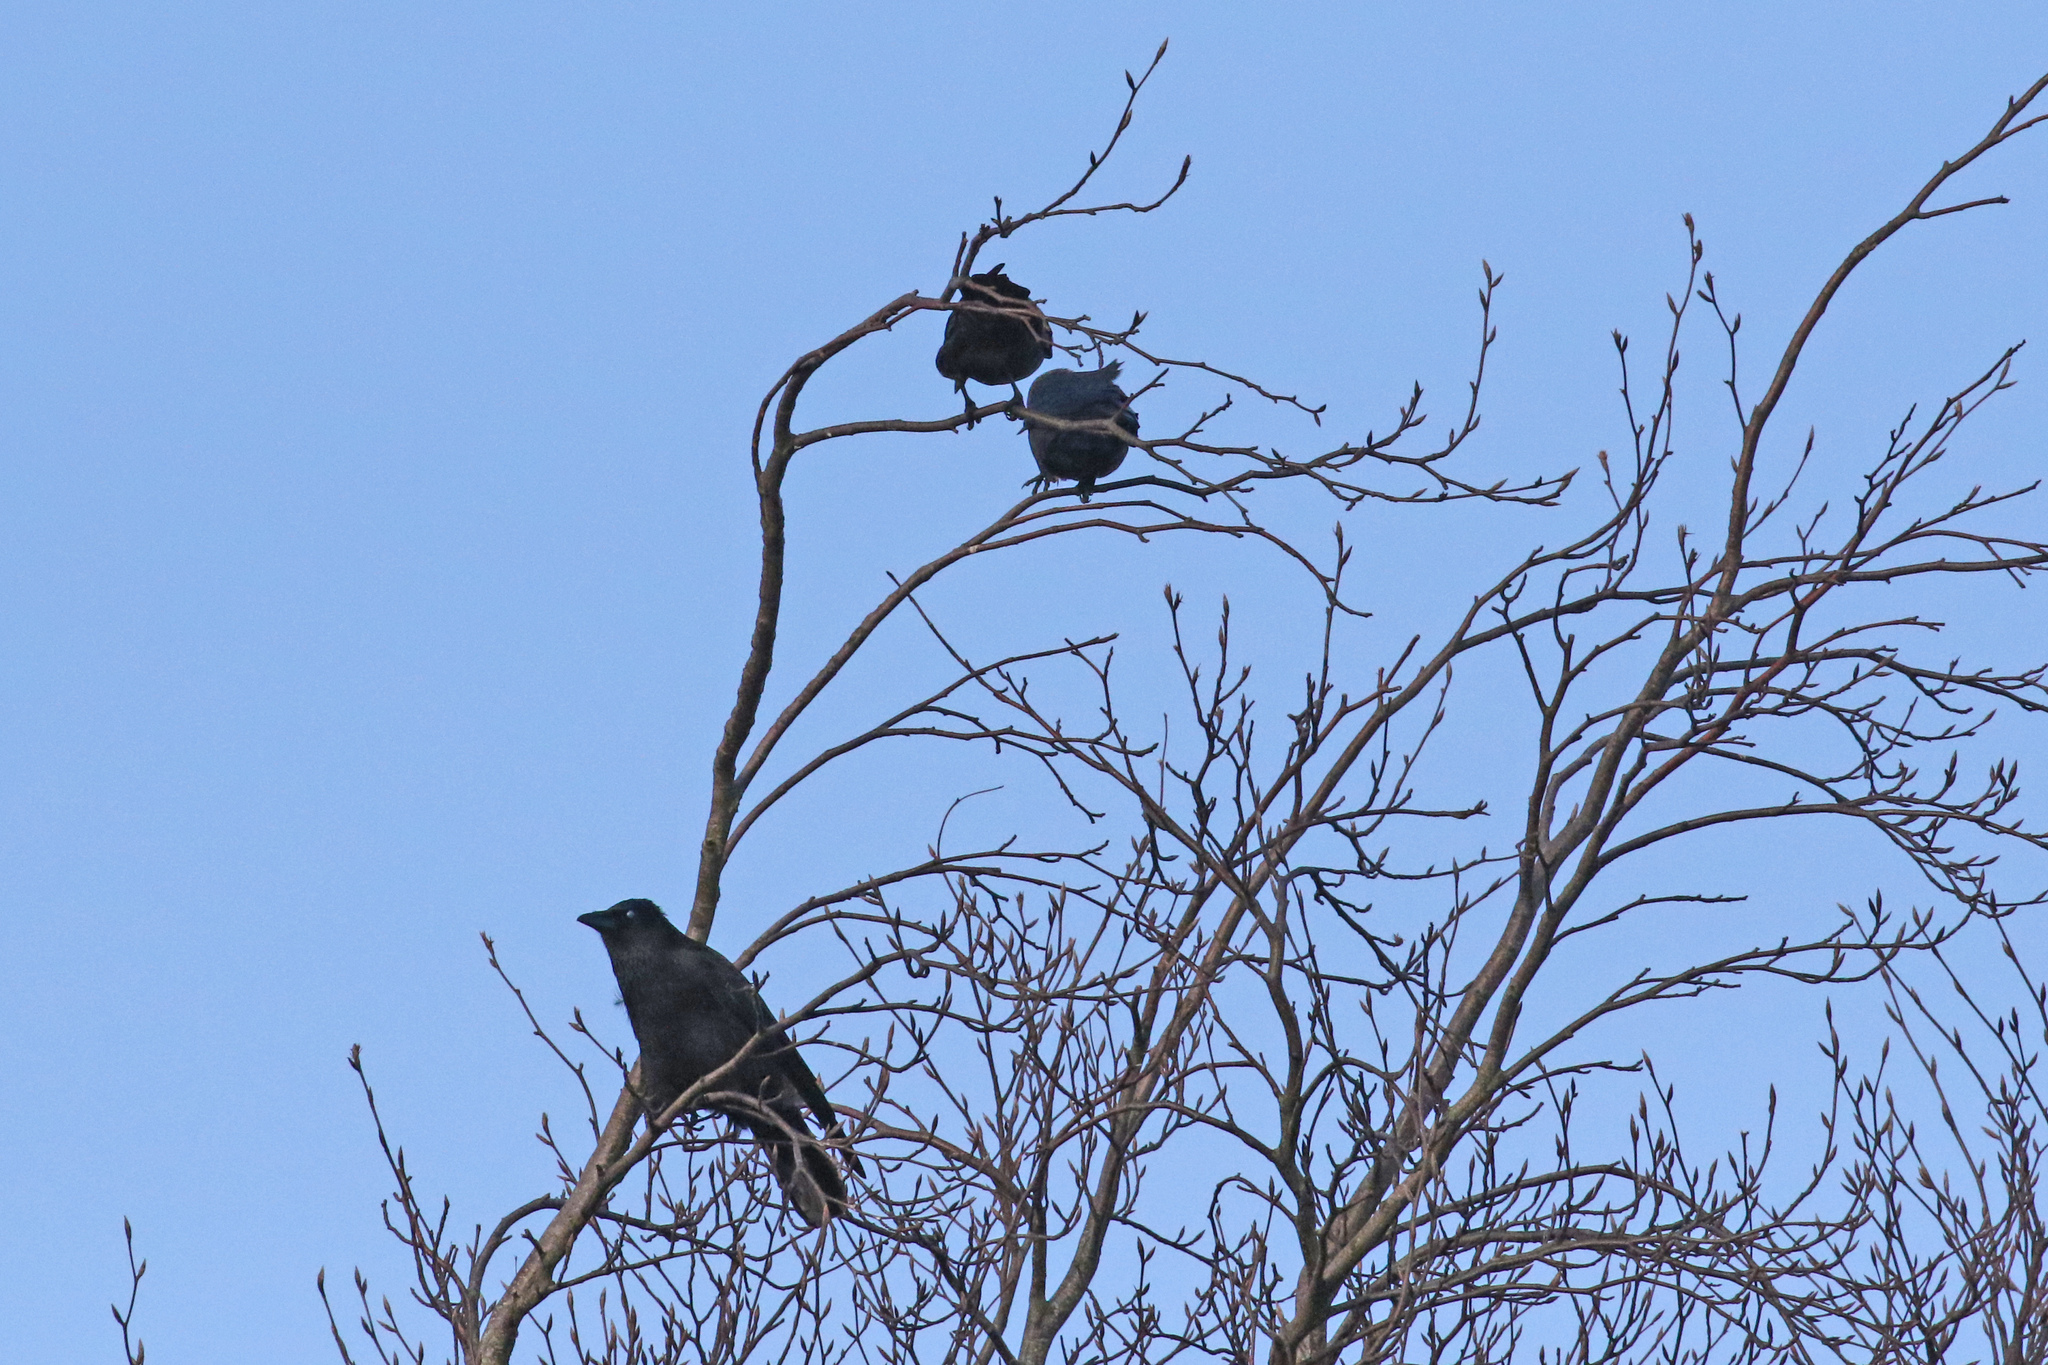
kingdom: Animalia
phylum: Chordata
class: Aves
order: Passeriformes
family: Corvidae
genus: Corvus
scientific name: Corvus corone
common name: Carrion crow
